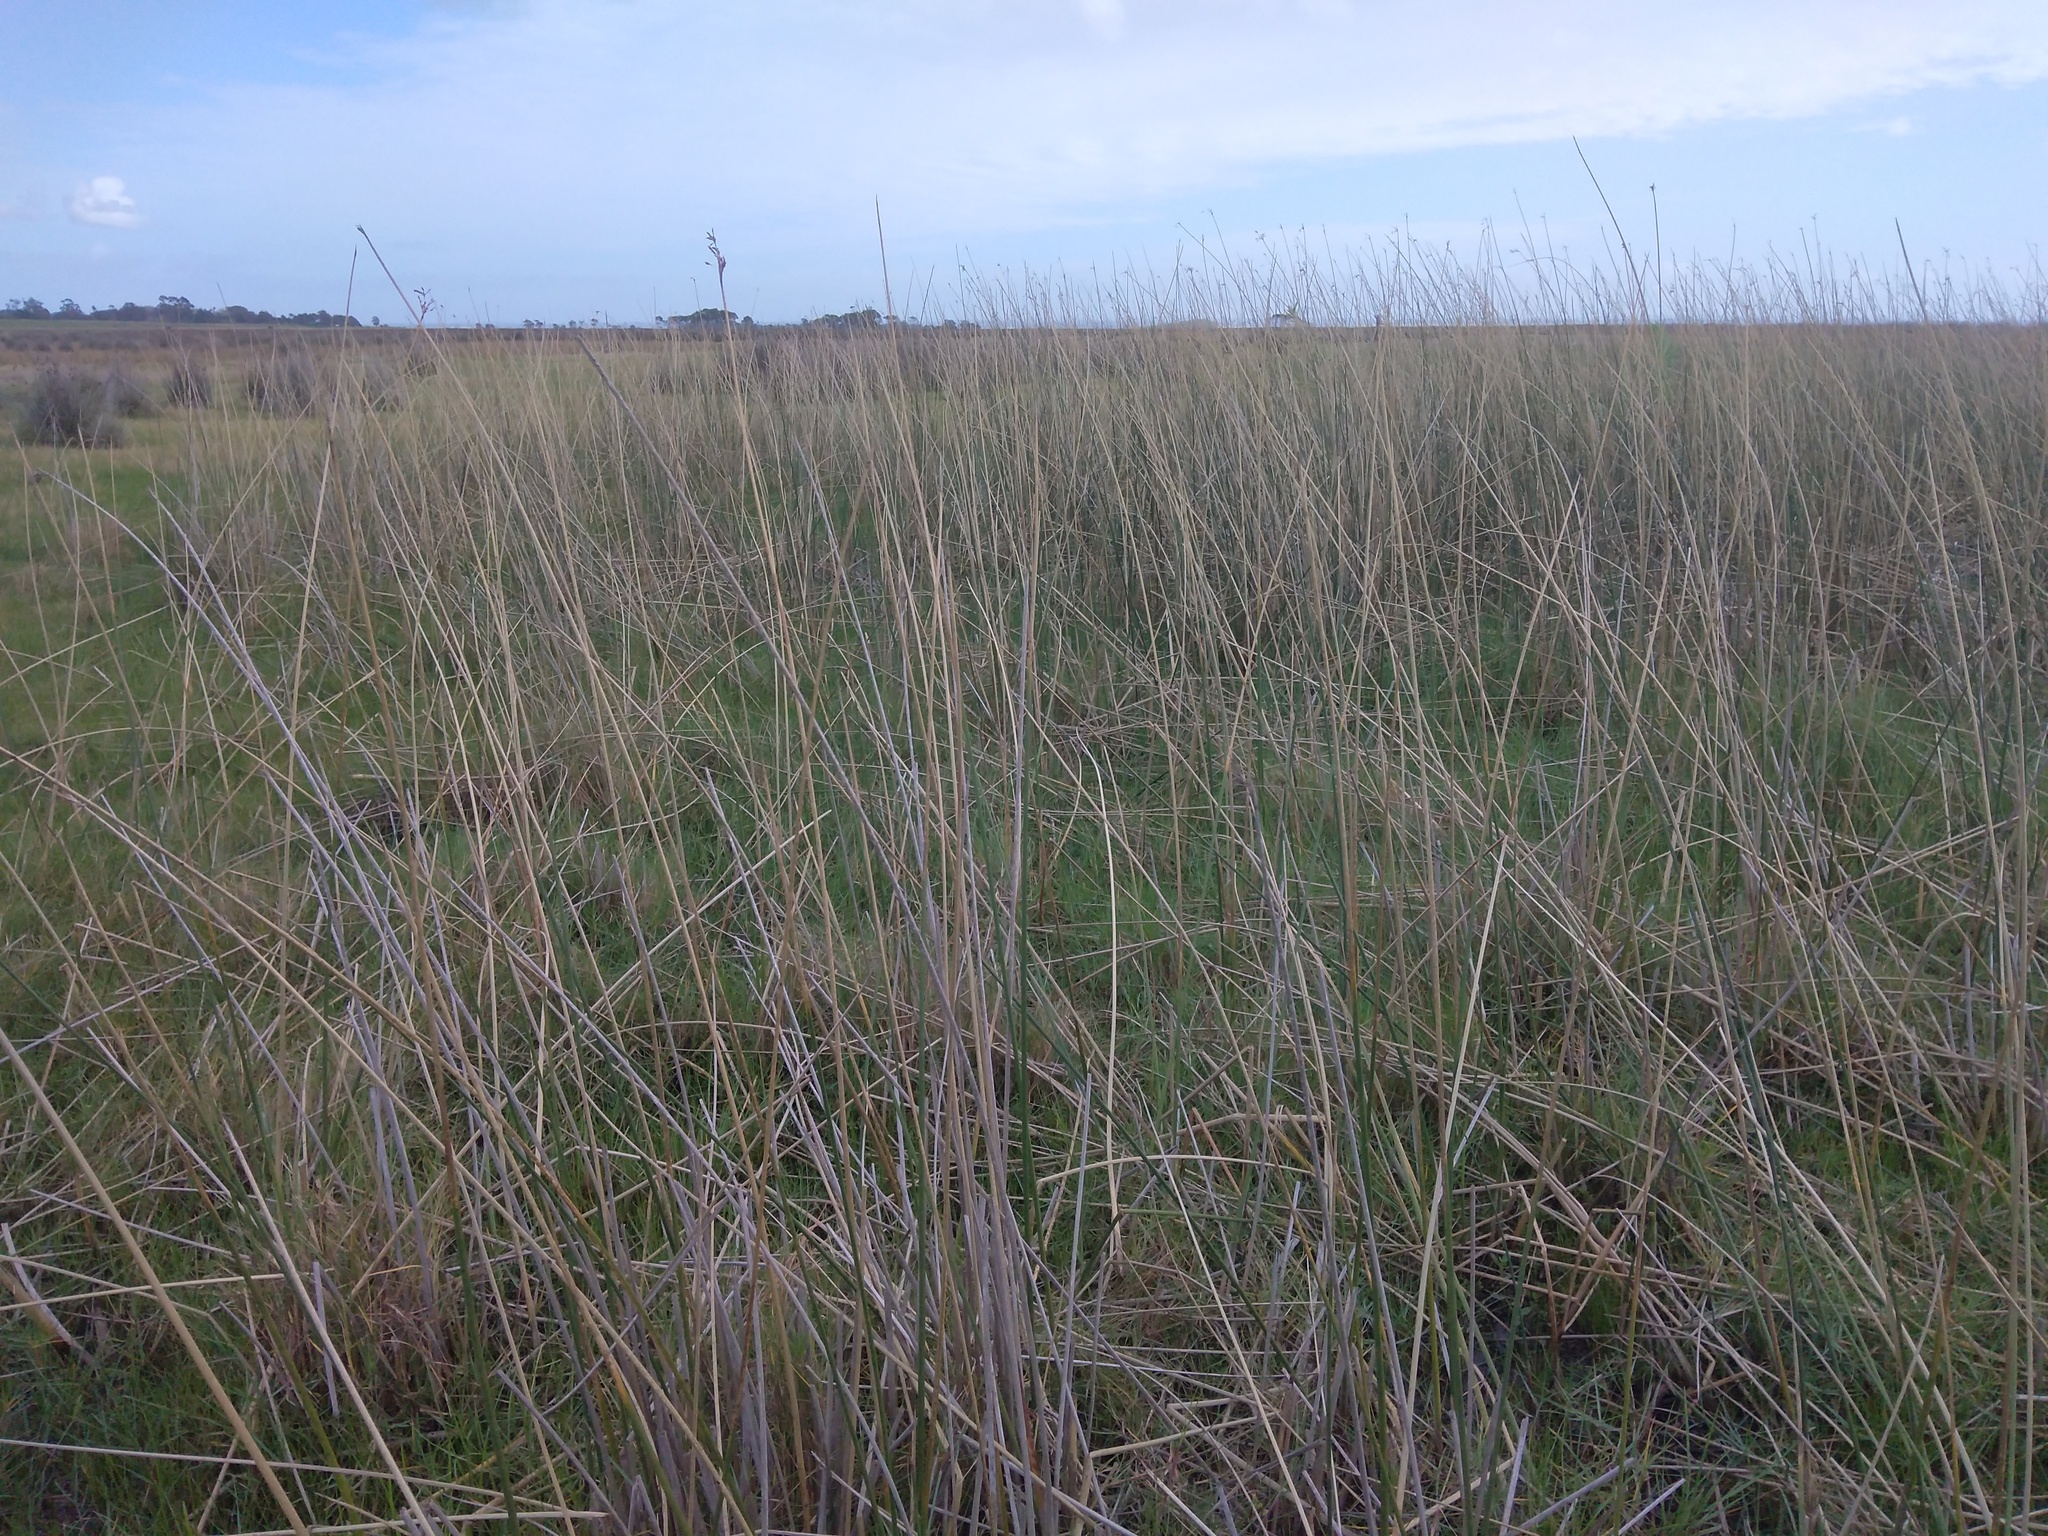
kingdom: Plantae
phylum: Tracheophyta
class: Liliopsida
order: Poales
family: Cyperaceae
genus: Schoenoplectus
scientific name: Schoenoplectus californicus
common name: California bulrush
